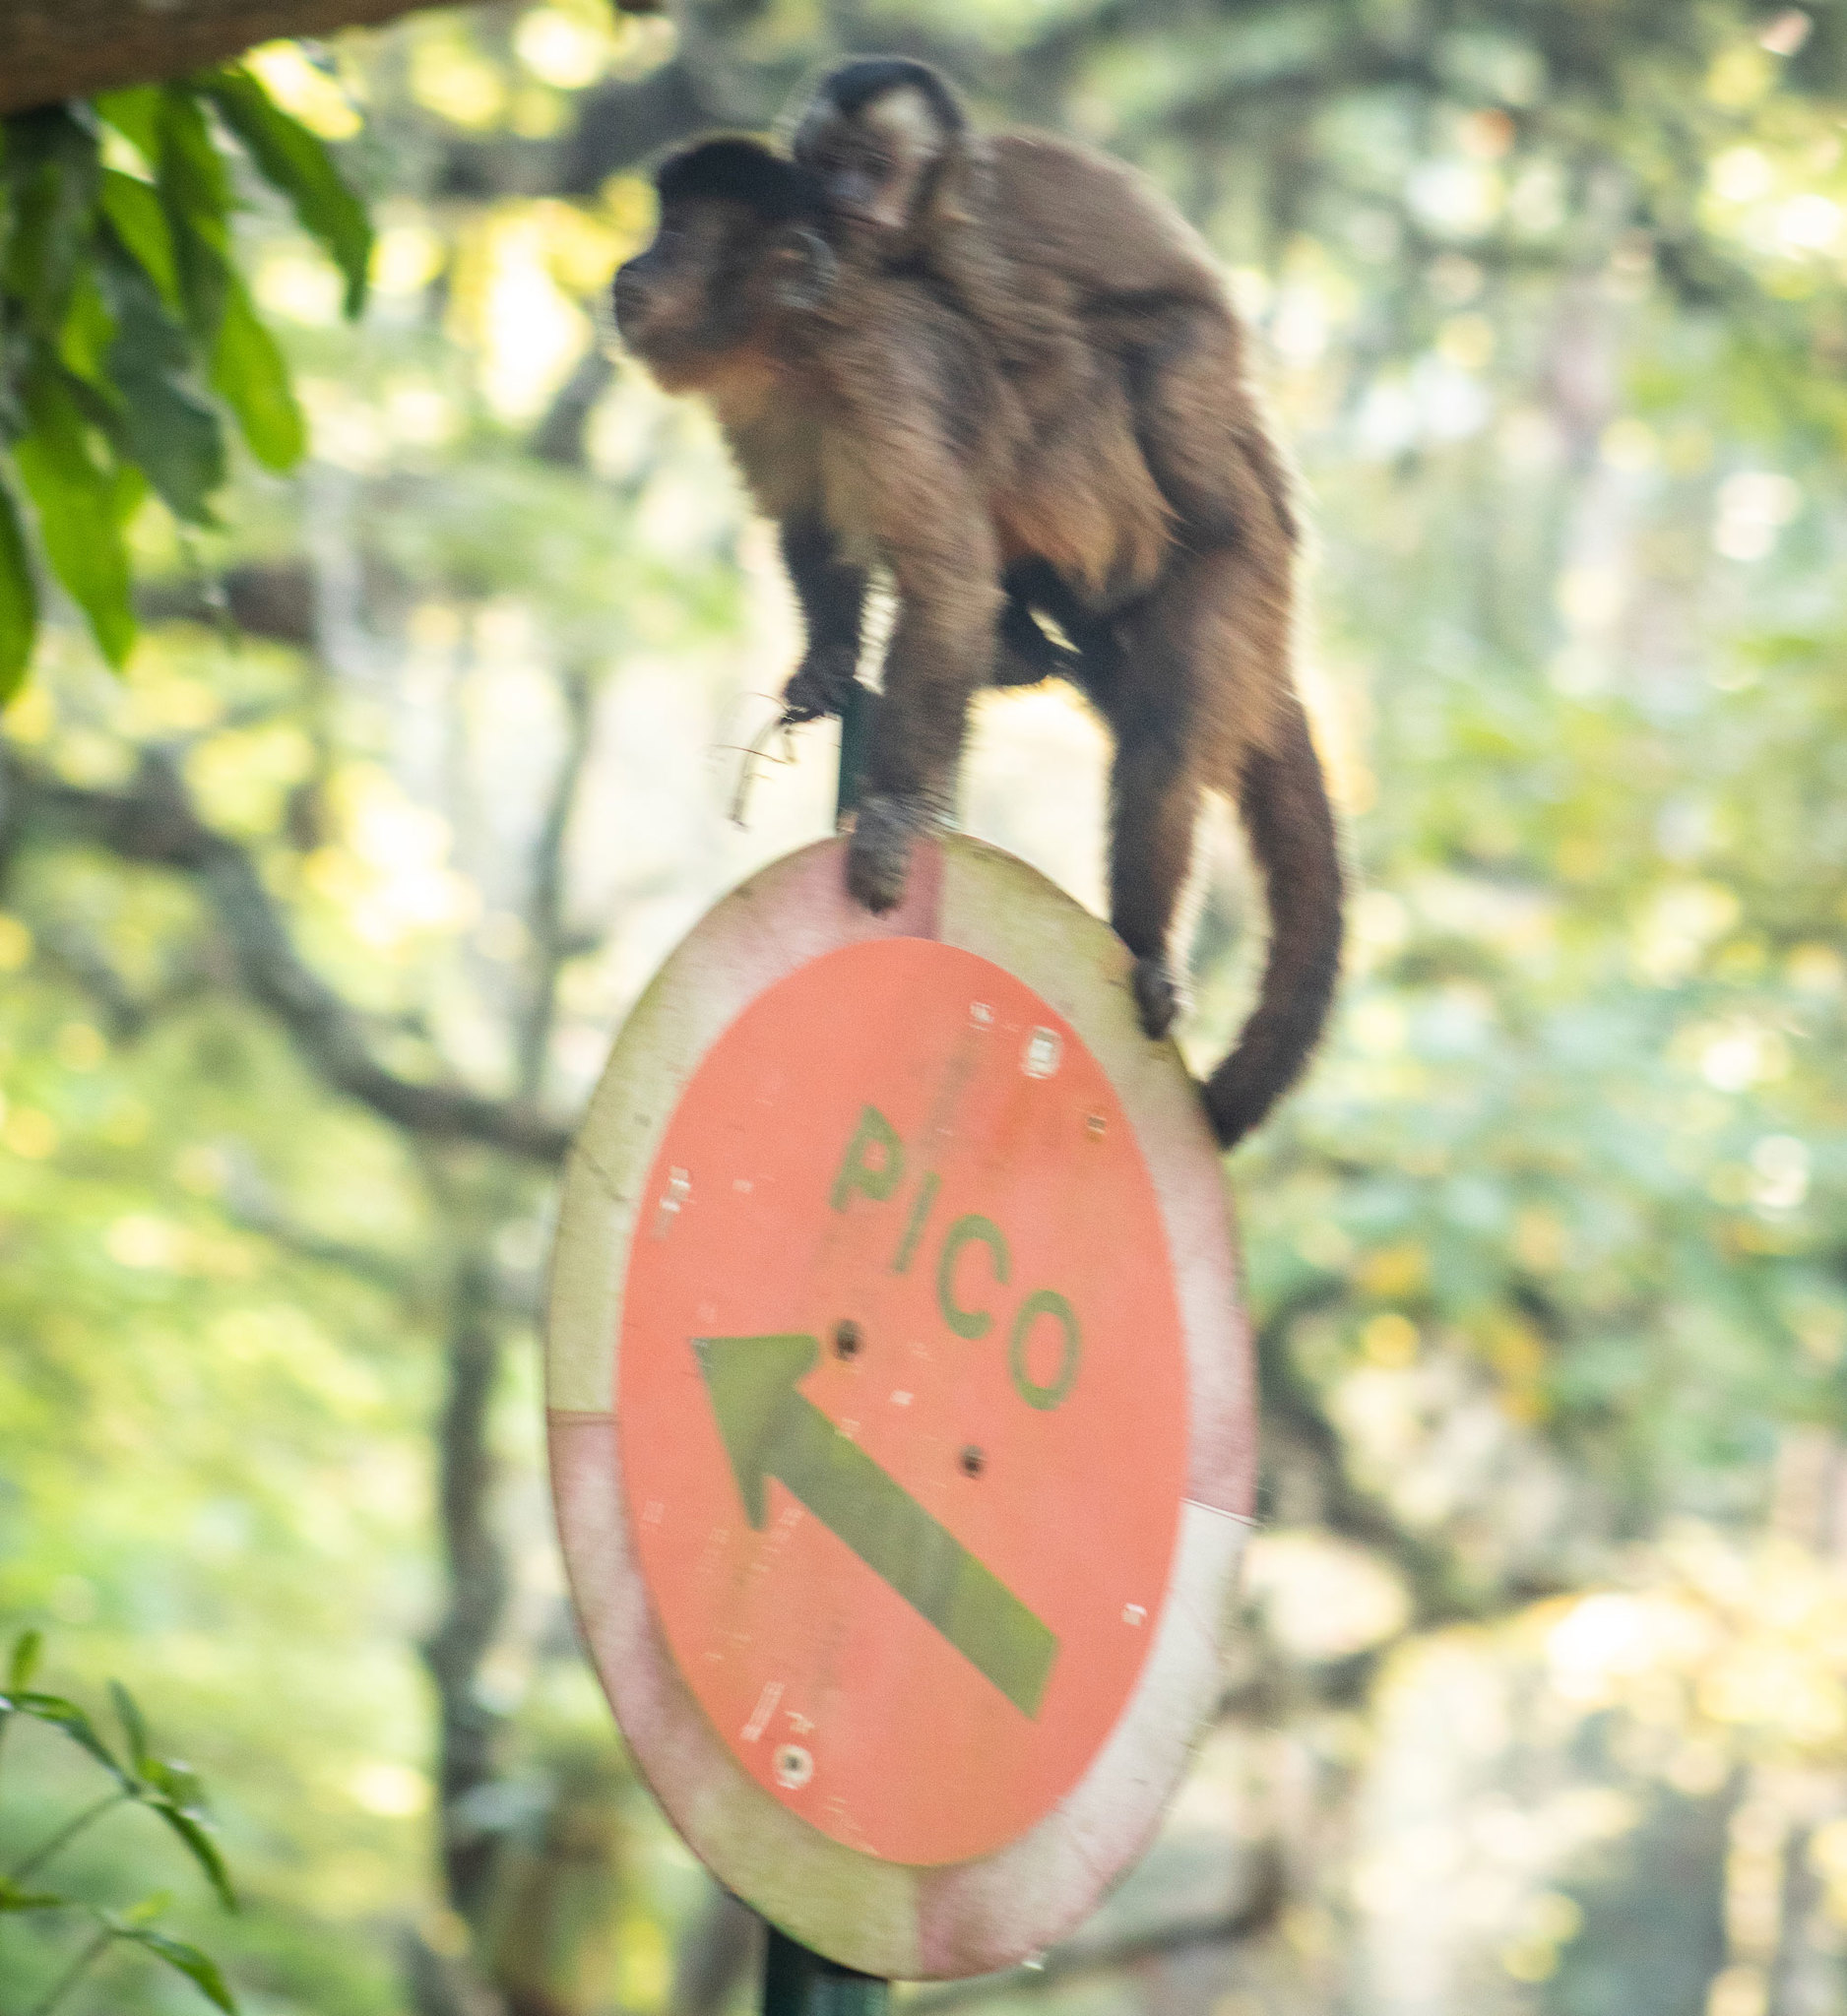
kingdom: Animalia
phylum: Chordata
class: Mammalia
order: Primates
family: Cebidae
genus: Sapajus
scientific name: Sapajus nigritus
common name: Black capuchin
